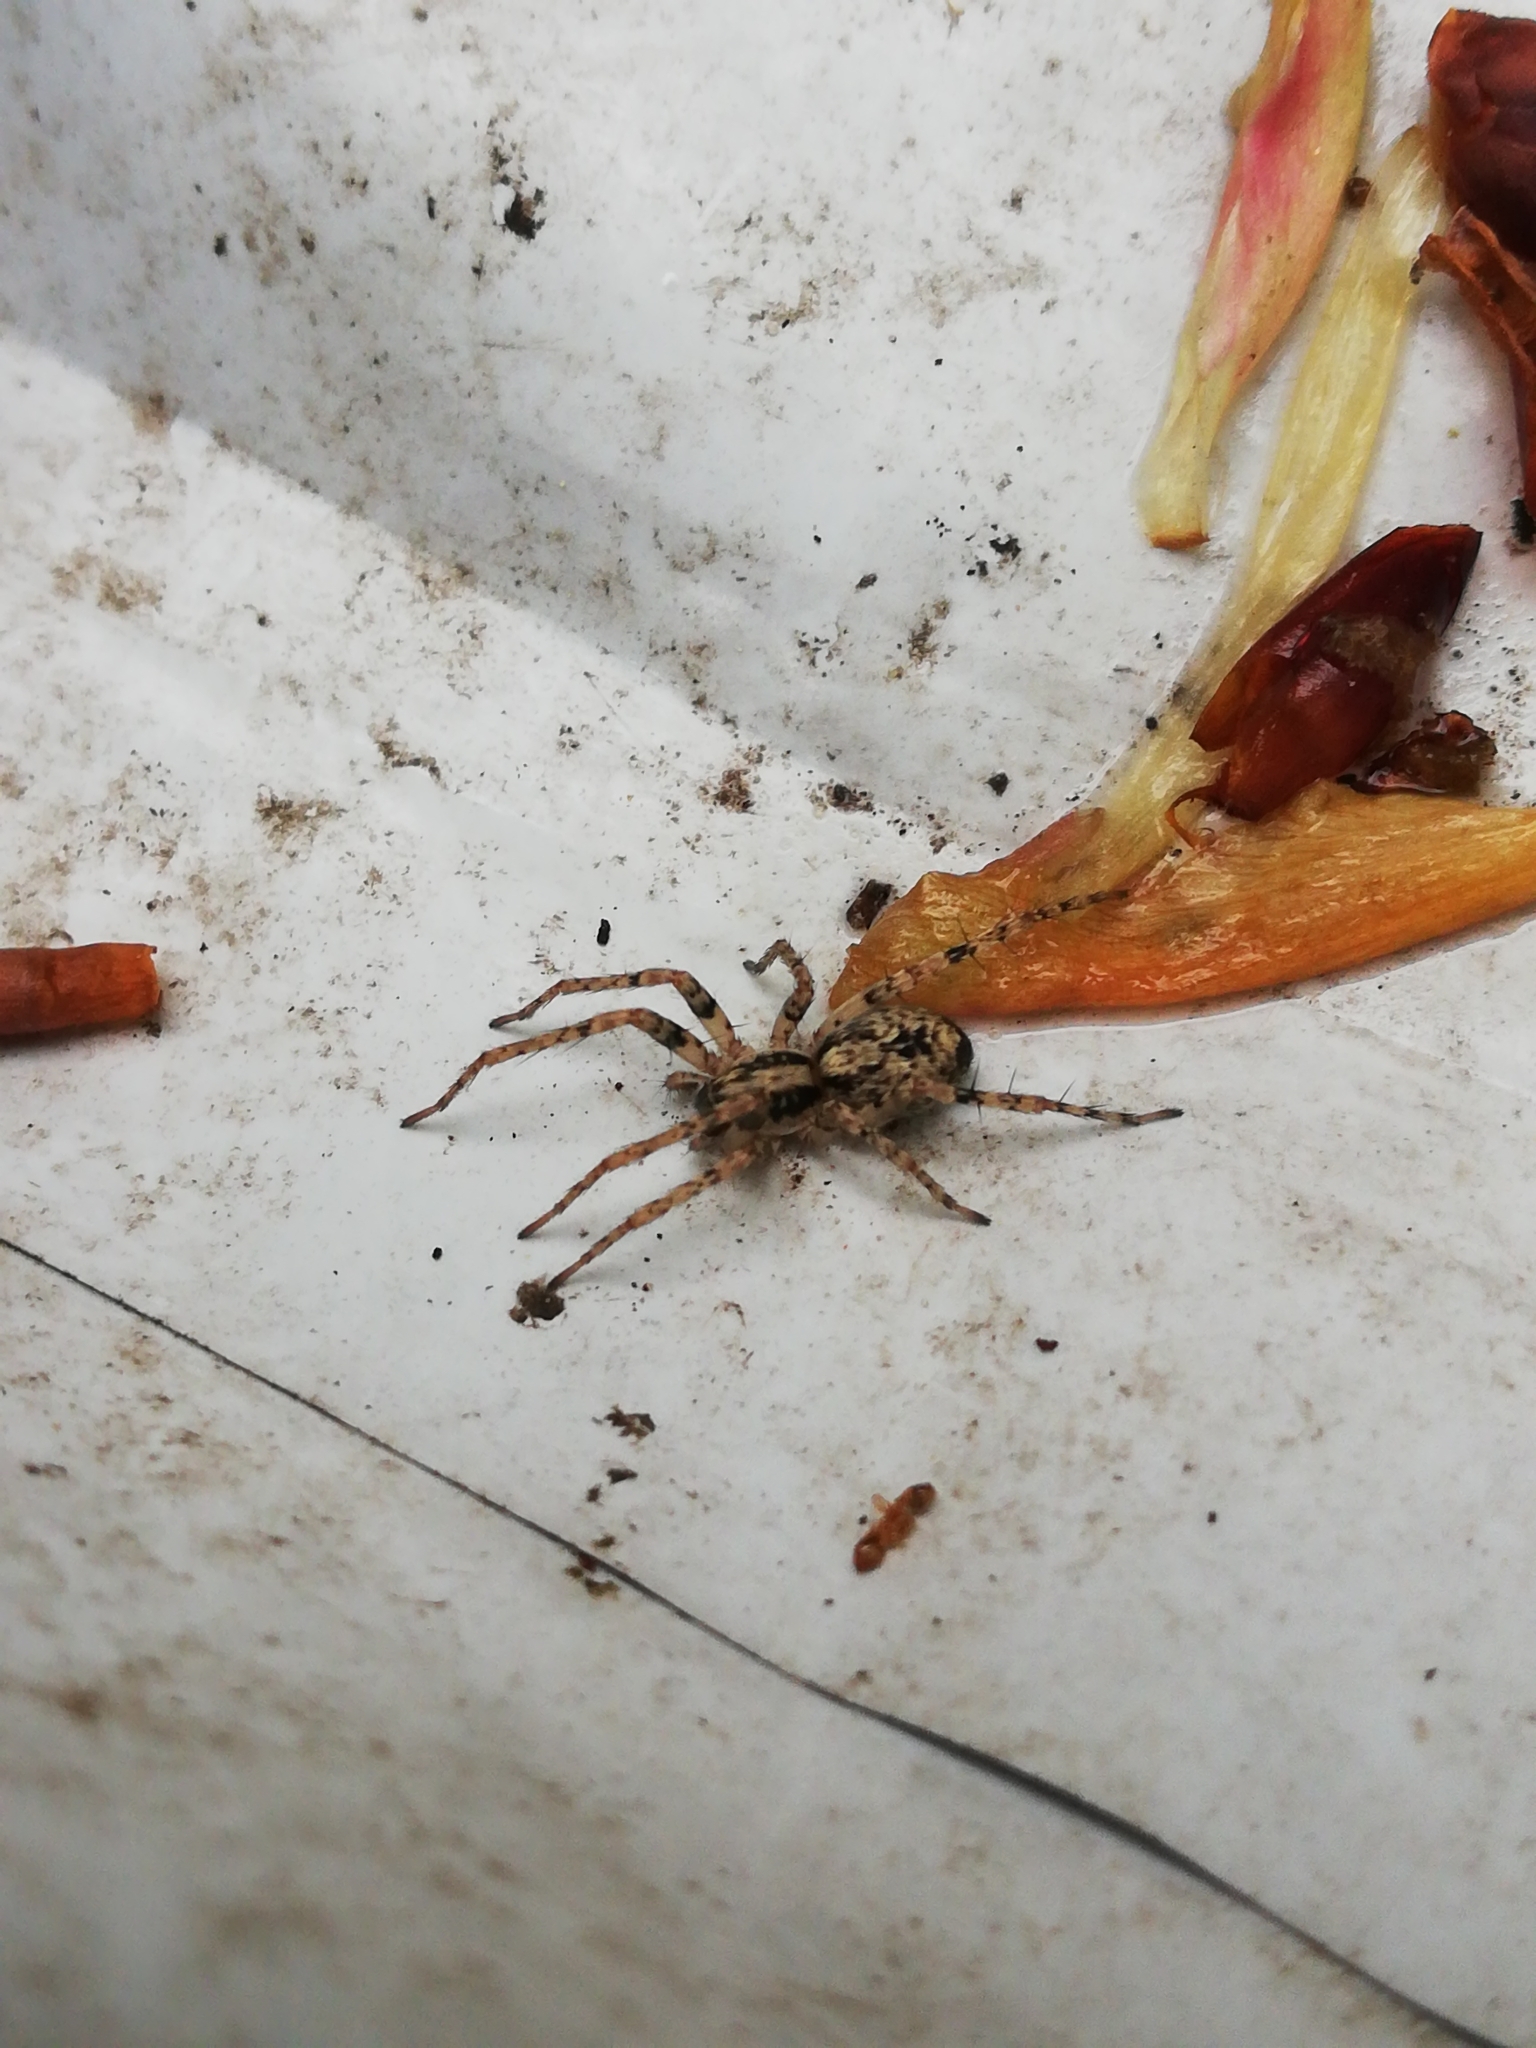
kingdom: Animalia
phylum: Arthropoda
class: Arachnida
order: Araneae
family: Anyphaenidae
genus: Anyphaena
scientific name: Anyphaena accentuata
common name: Buzzing spider
